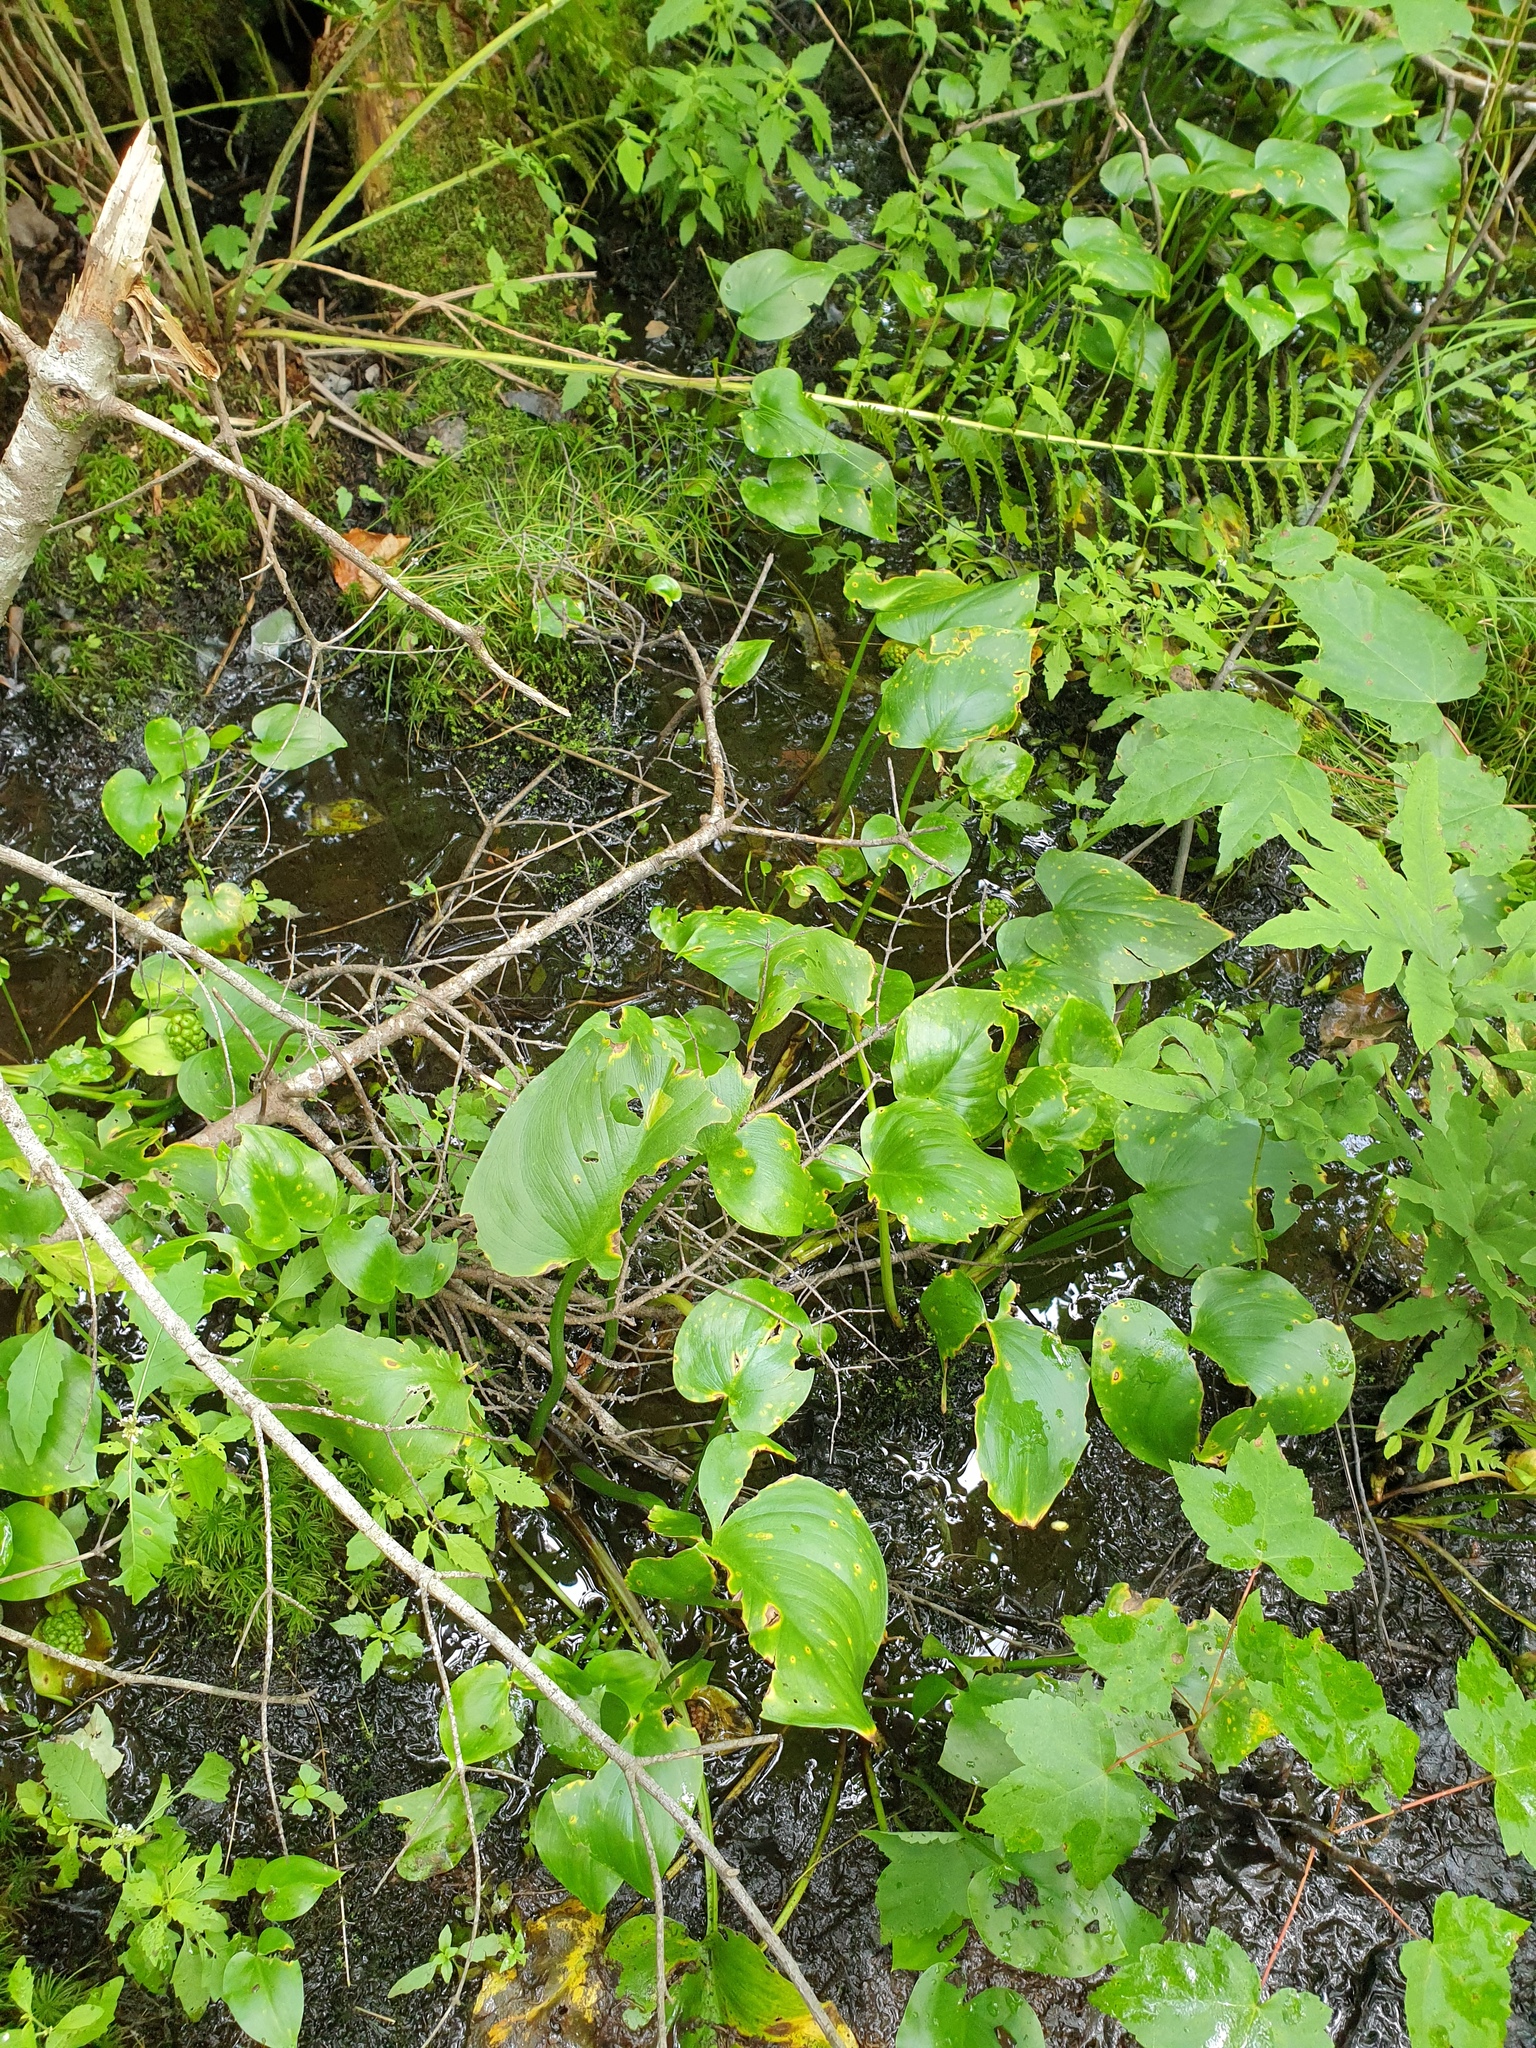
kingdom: Plantae
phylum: Tracheophyta
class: Liliopsida
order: Alismatales
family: Araceae
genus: Calla
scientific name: Calla palustris
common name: Bog arum
